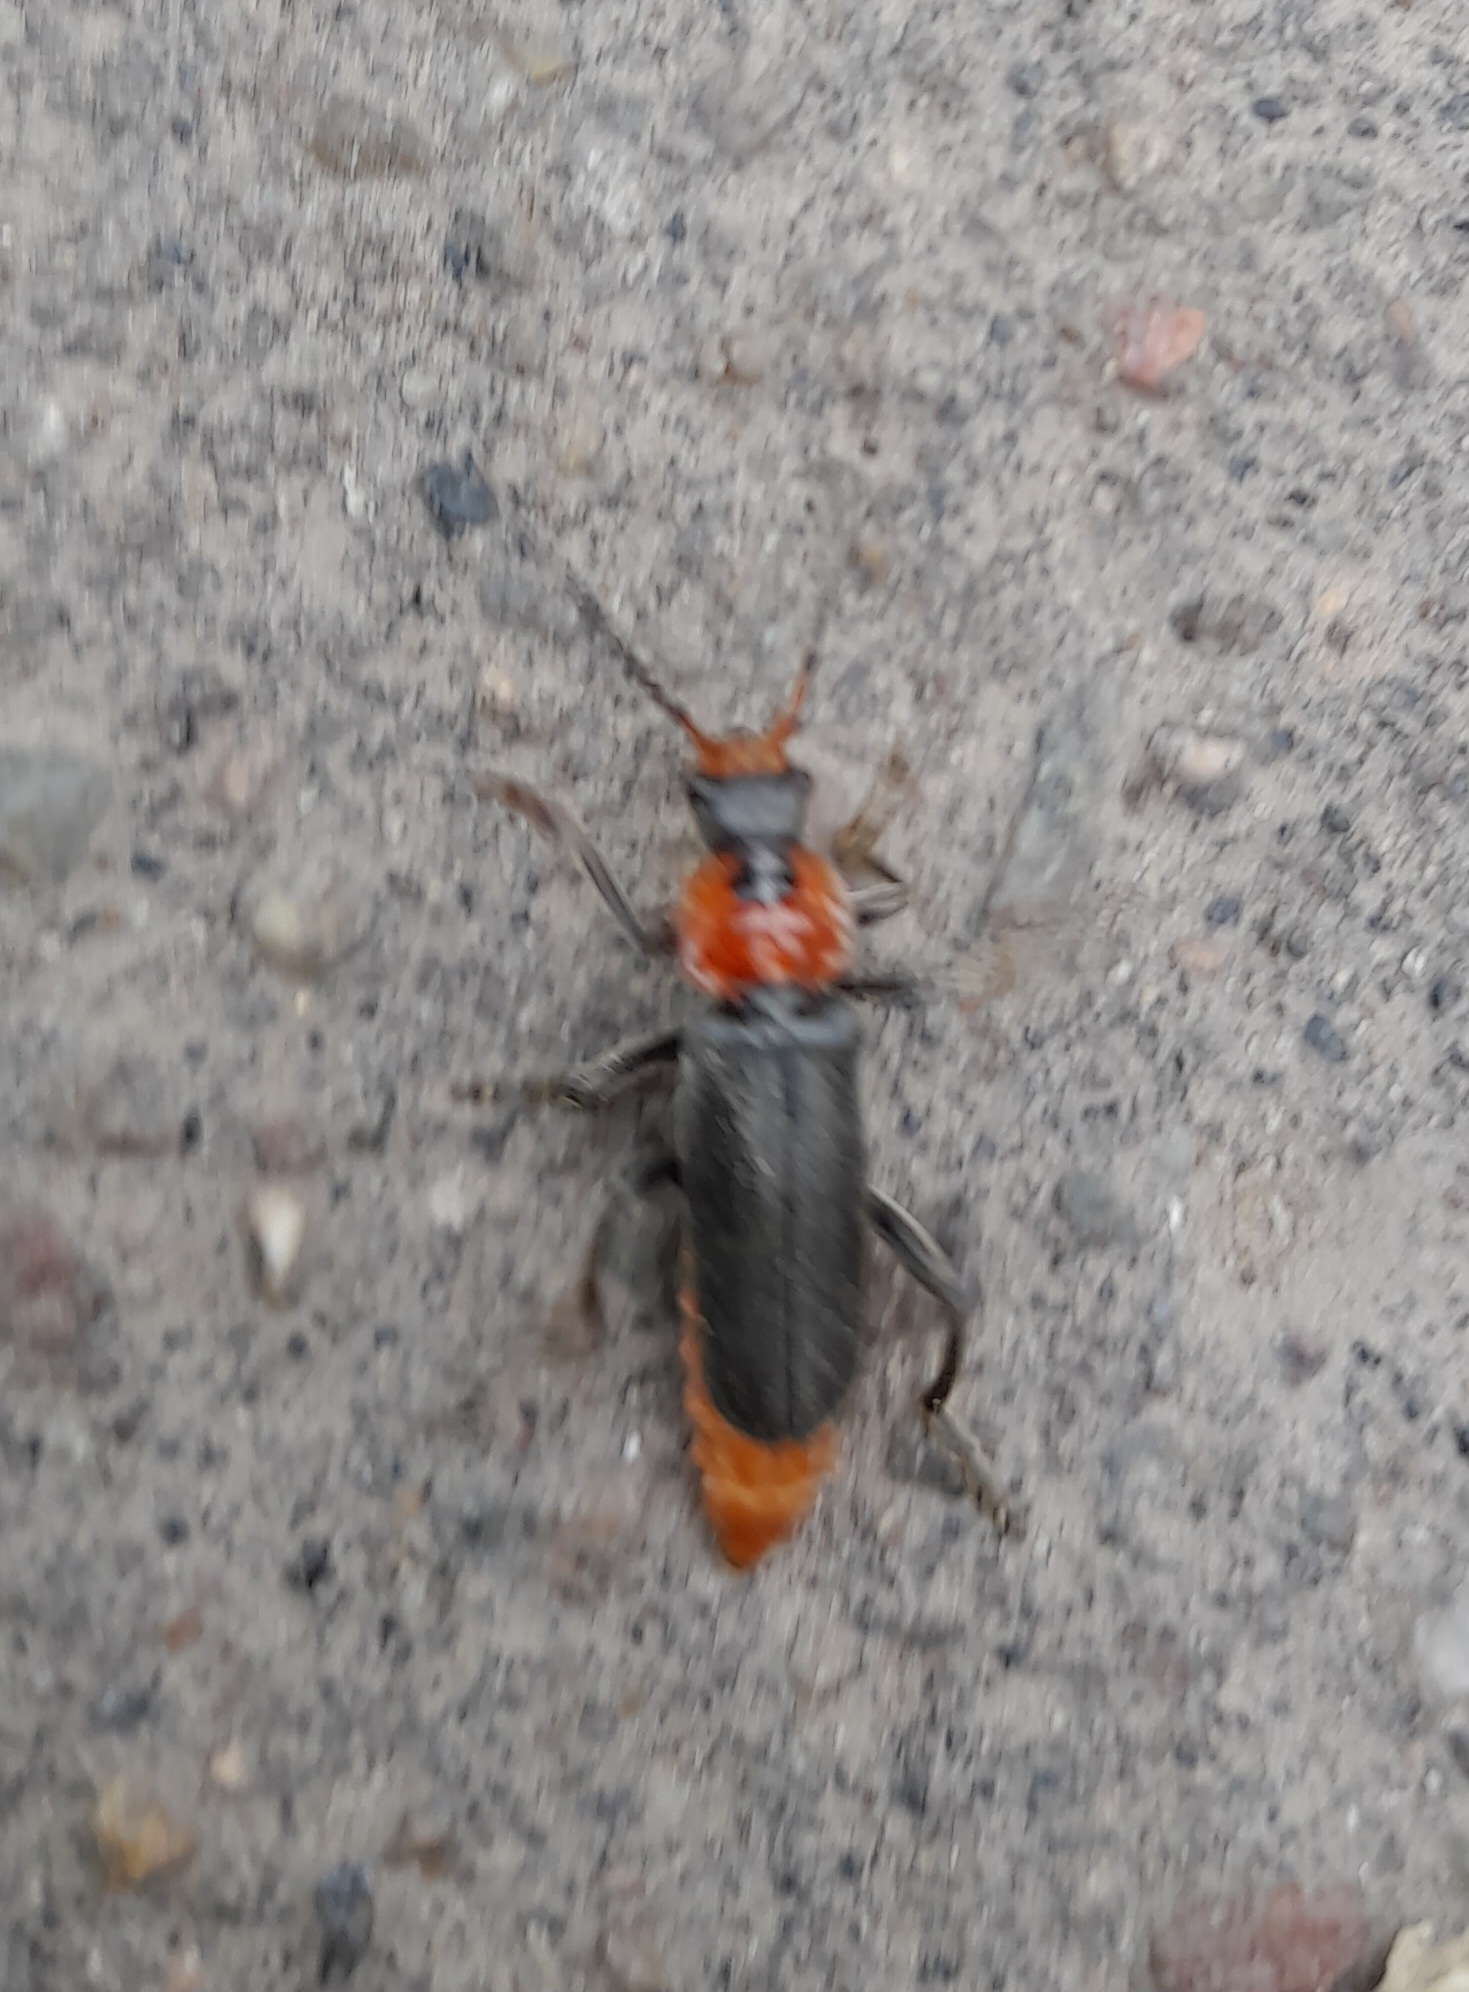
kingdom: Animalia
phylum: Arthropoda
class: Insecta
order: Coleoptera
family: Cantharidae
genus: Cantharis
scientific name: Cantharis fusca
